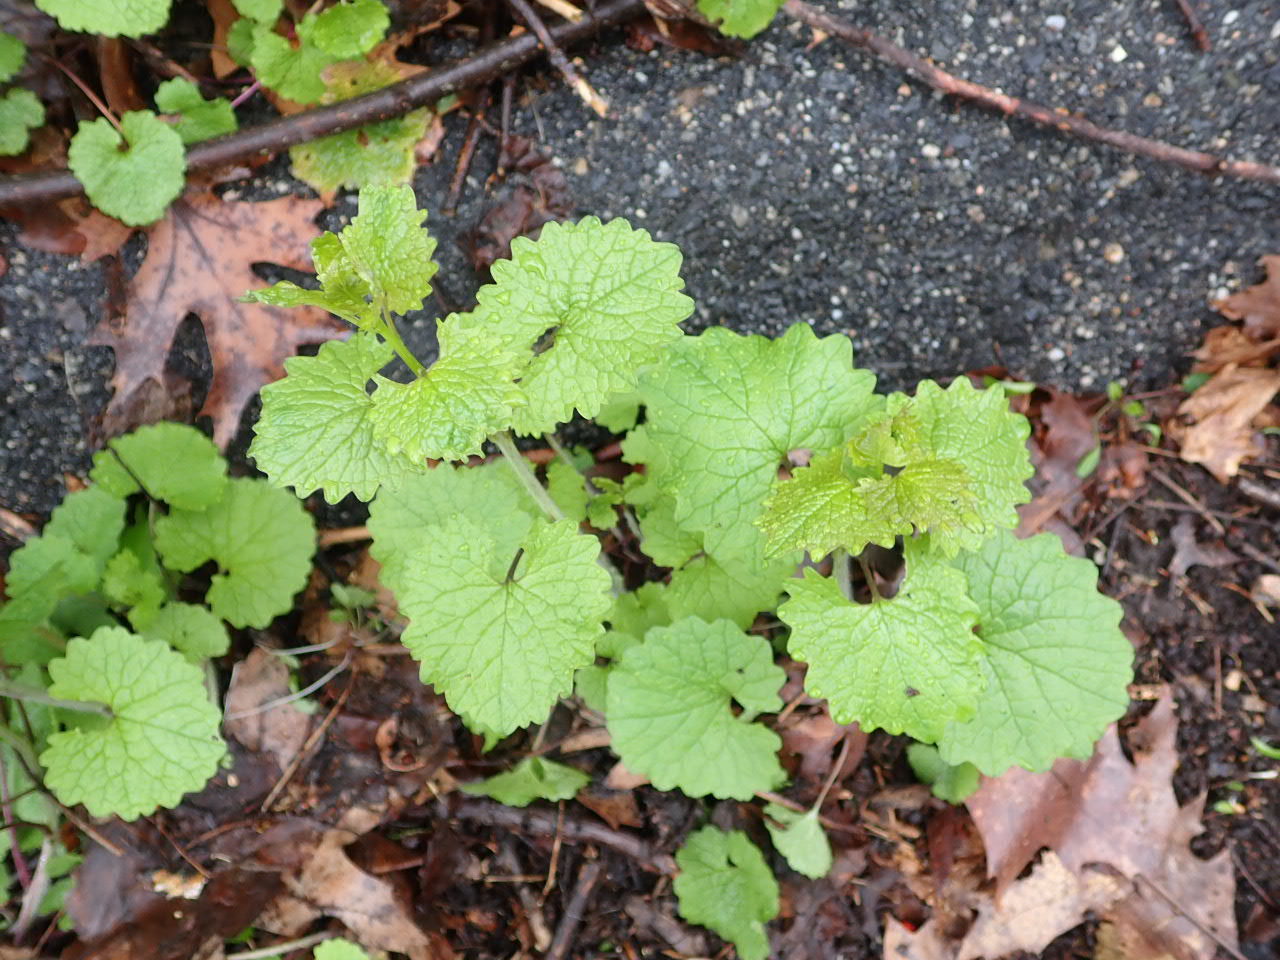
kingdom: Plantae
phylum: Tracheophyta
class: Magnoliopsida
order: Brassicales
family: Brassicaceae
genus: Alliaria
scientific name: Alliaria petiolata
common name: Garlic mustard
